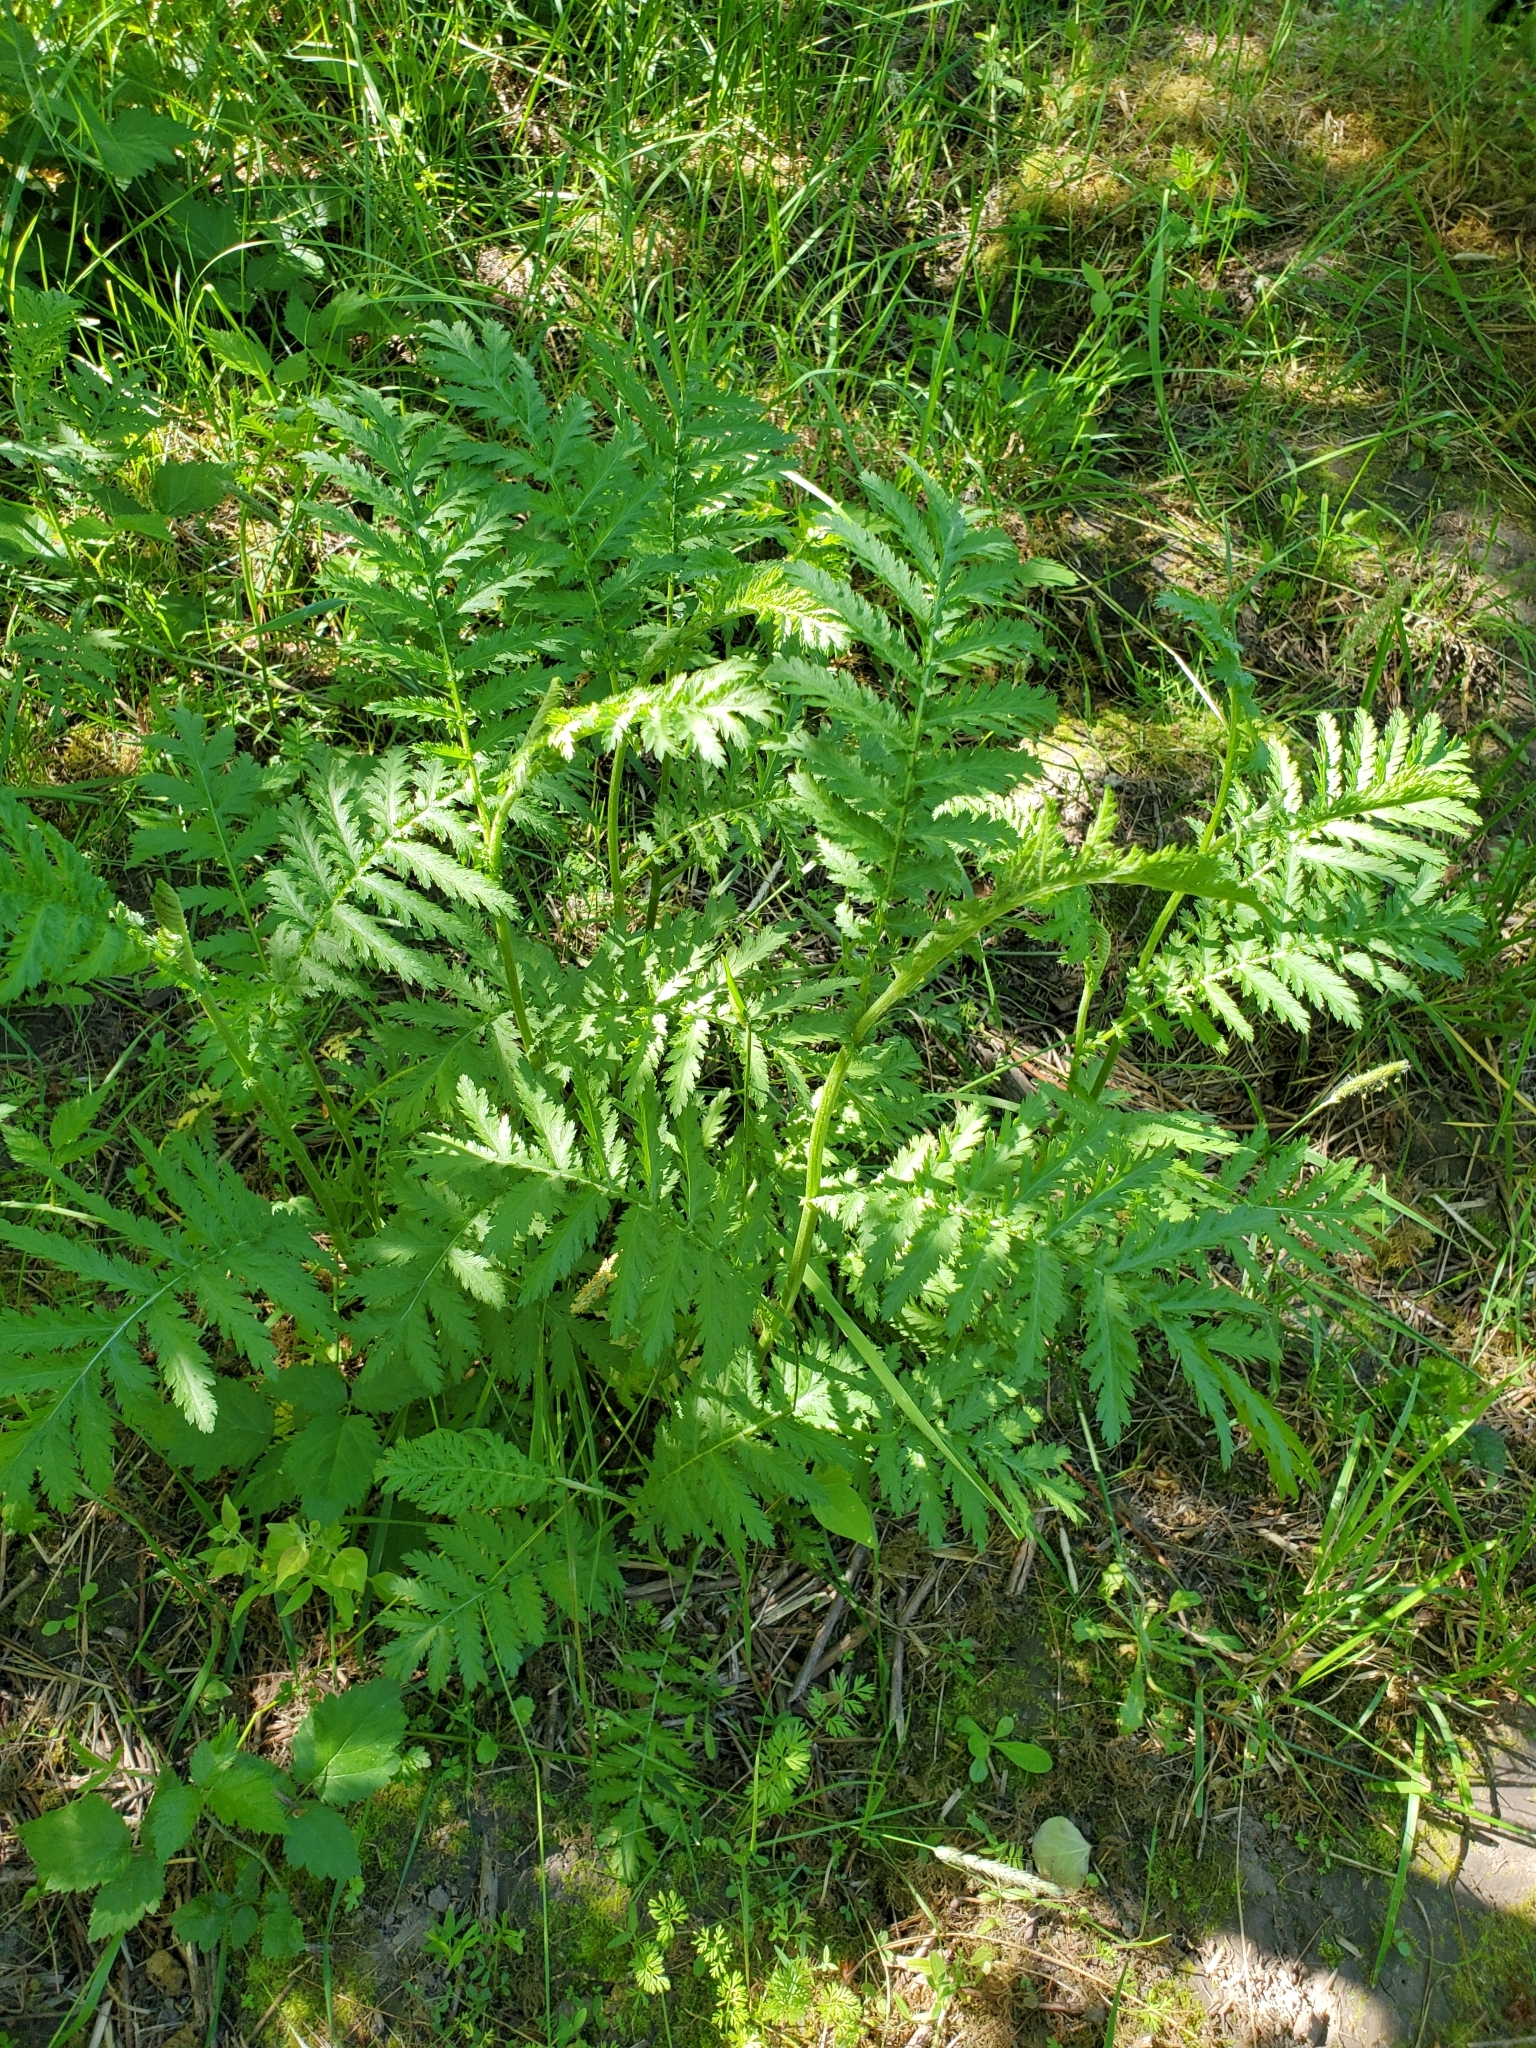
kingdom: Plantae
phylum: Tracheophyta
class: Magnoliopsida
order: Asterales
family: Asteraceae
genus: Tanacetum
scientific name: Tanacetum vulgare
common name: Common tansy
